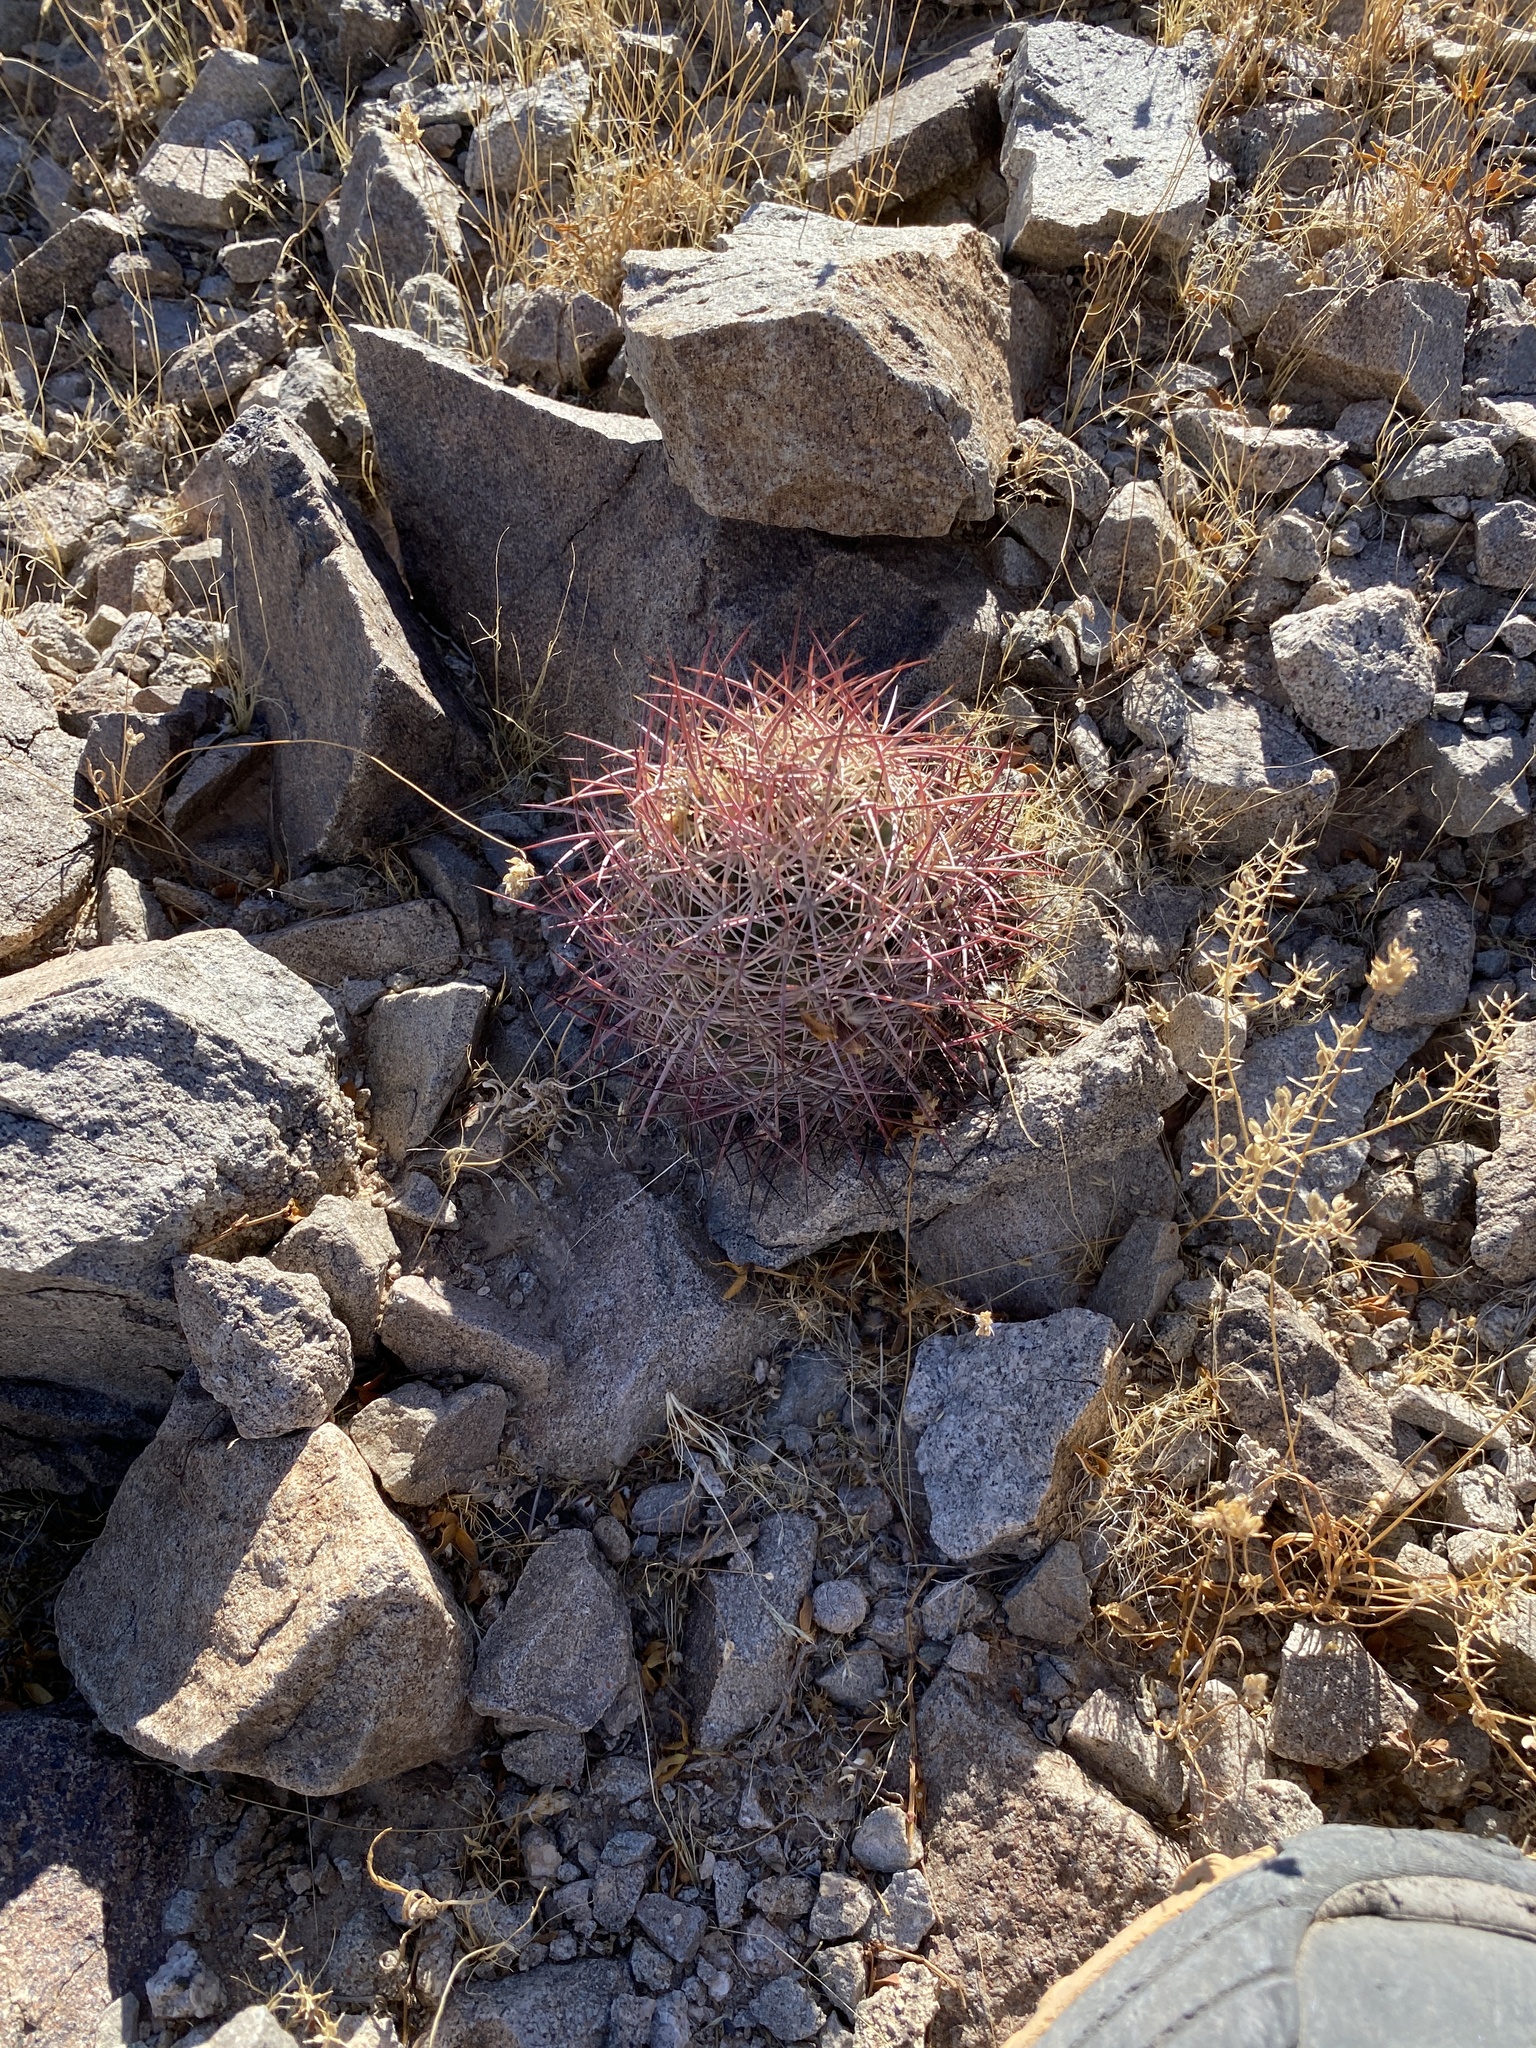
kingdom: Plantae
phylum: Tracheophyta
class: Magnoliopsida
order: Caryophyllales
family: Cactaceae
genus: Sclerocactus
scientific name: Sclerocactus johnsonii
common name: Eight-spine fishhook cactus
